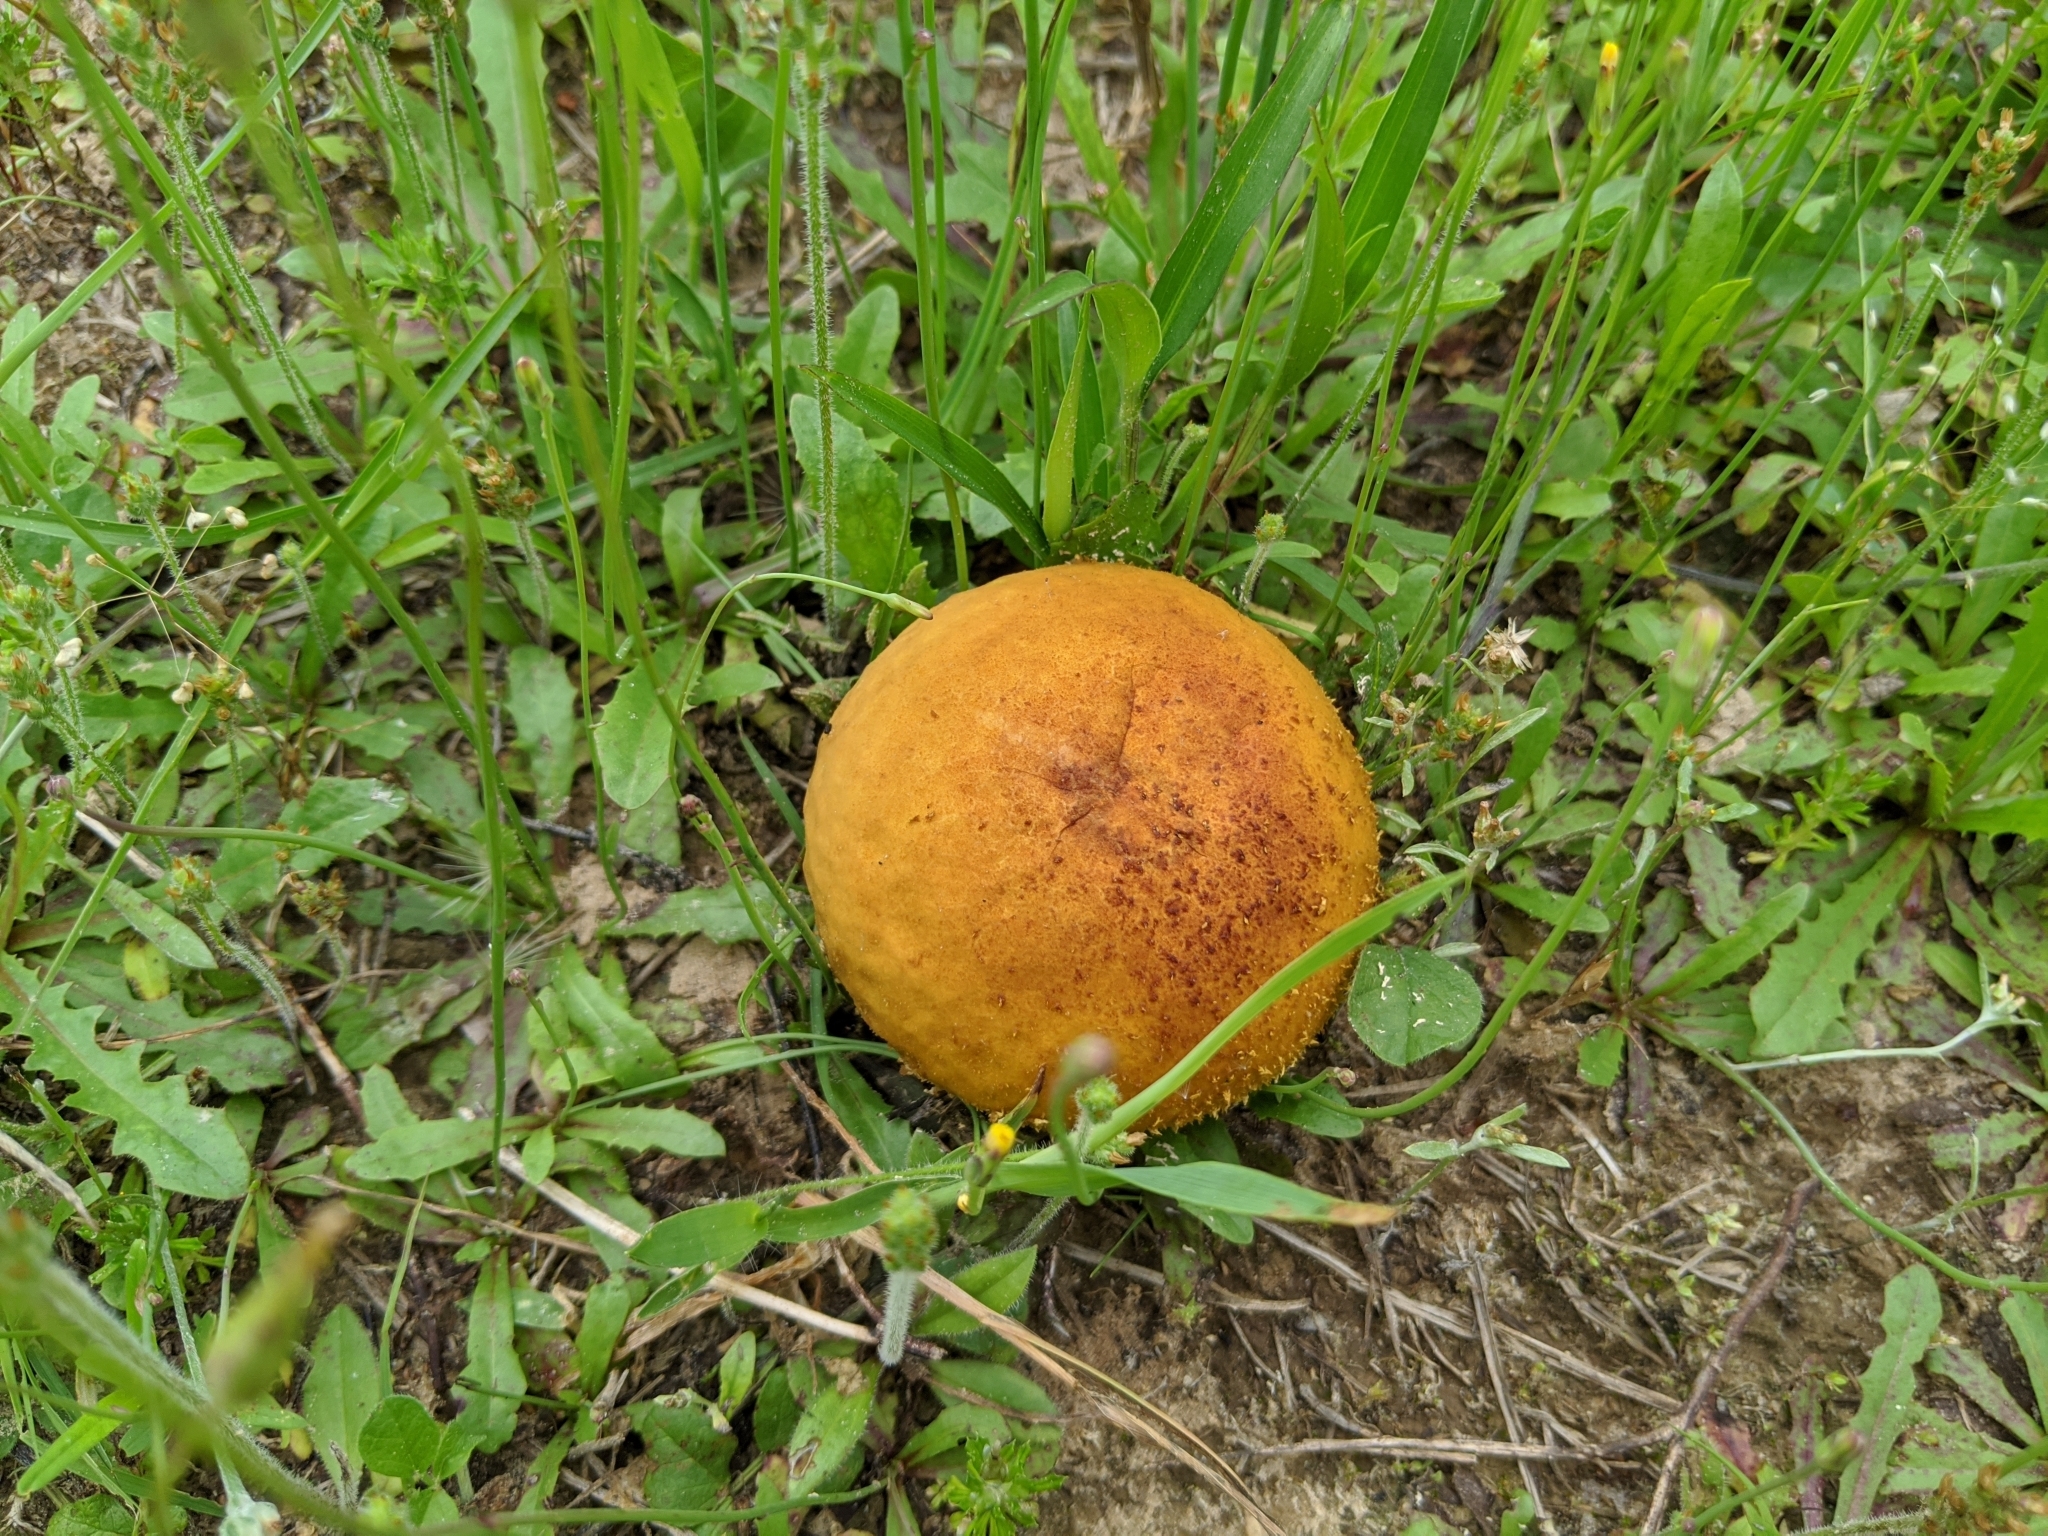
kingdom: Fungi
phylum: Basidiomycota
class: Agaricomycetes
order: Agaricales
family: Lycoperdaceae
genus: Calvatia
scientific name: Calvatia rugosa
